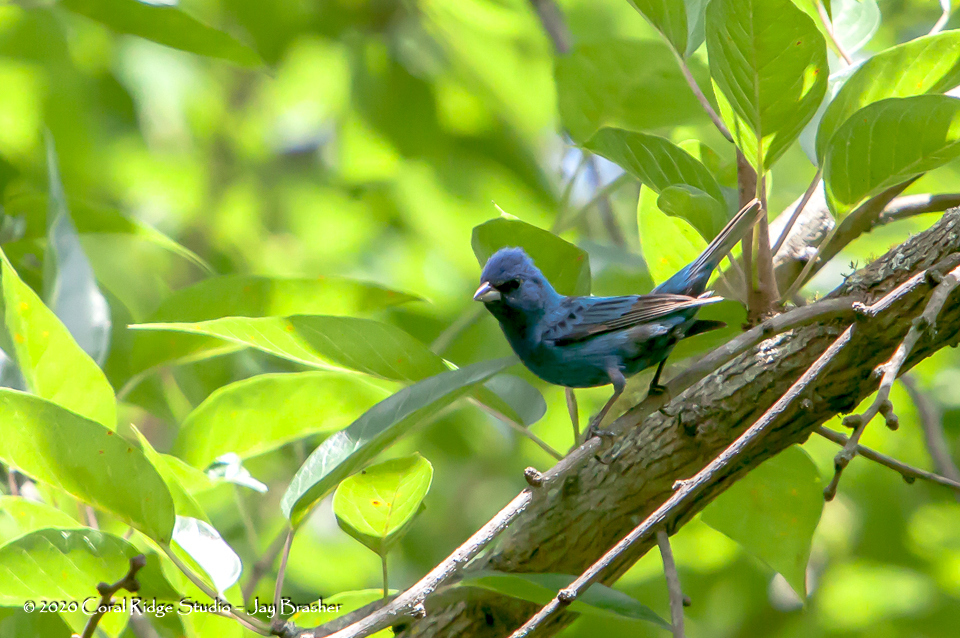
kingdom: Animalia
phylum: Chordata
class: Aves
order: Passeriformes
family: Cardinalidae
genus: Passerina
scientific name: Passerina cyanea
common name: Indigo bunting
